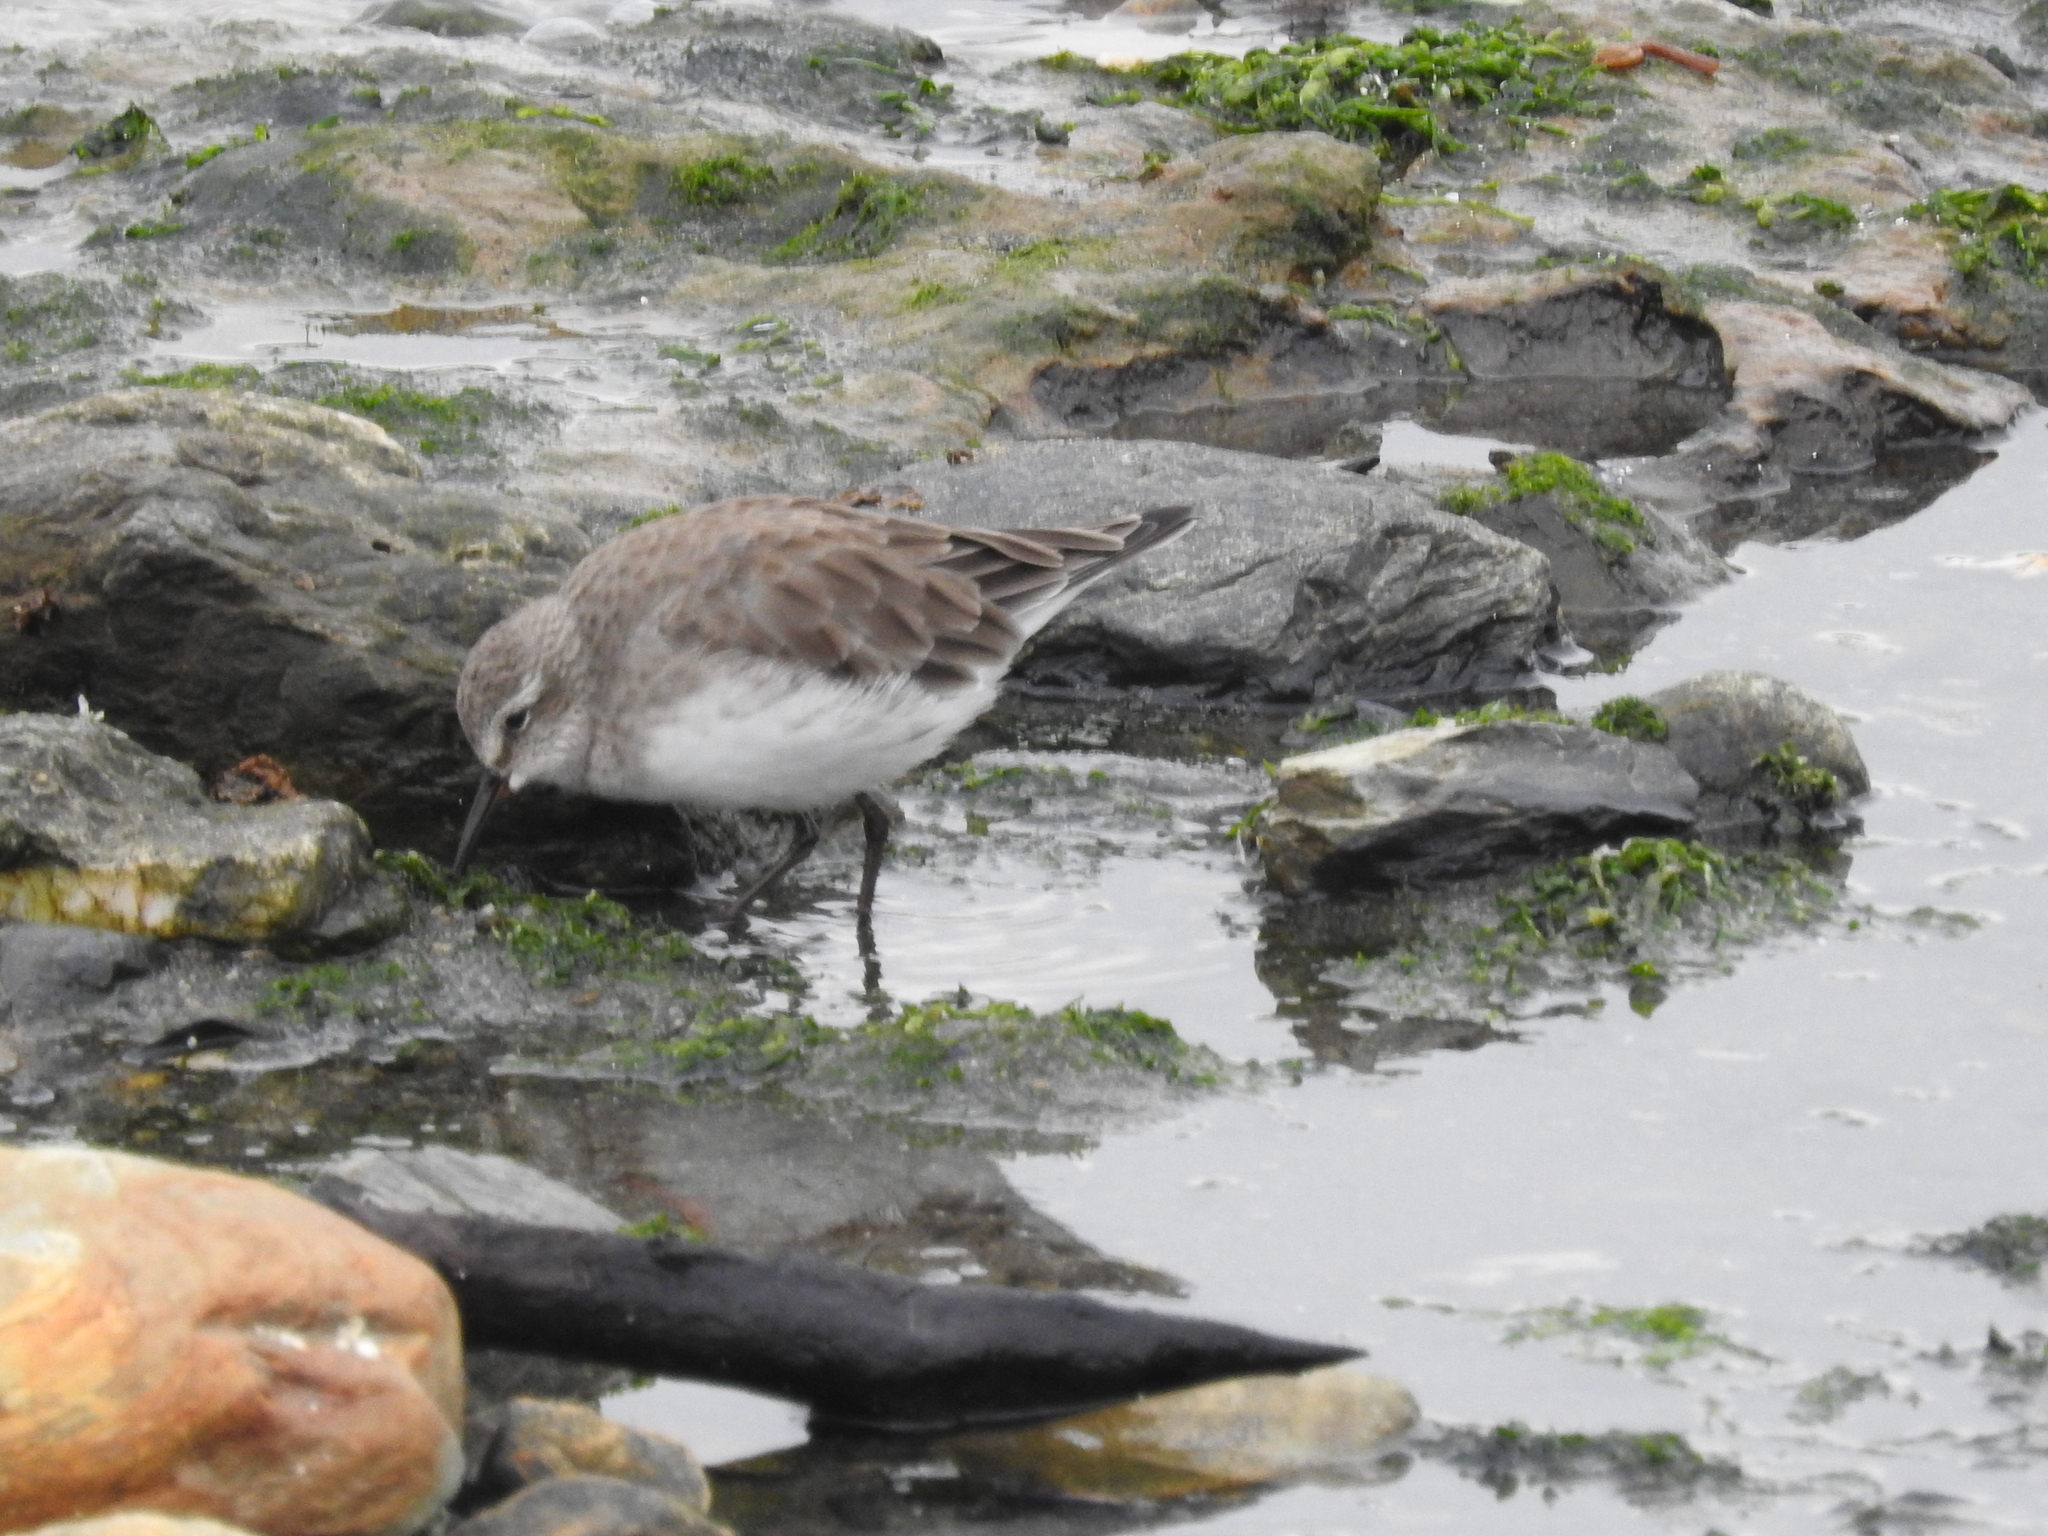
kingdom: Animalia
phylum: Chordata
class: Aves
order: Charadriiformes
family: Scolopacidae
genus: Calidris
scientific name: Calidris fuscicollis
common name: White-rumped sandpiper
